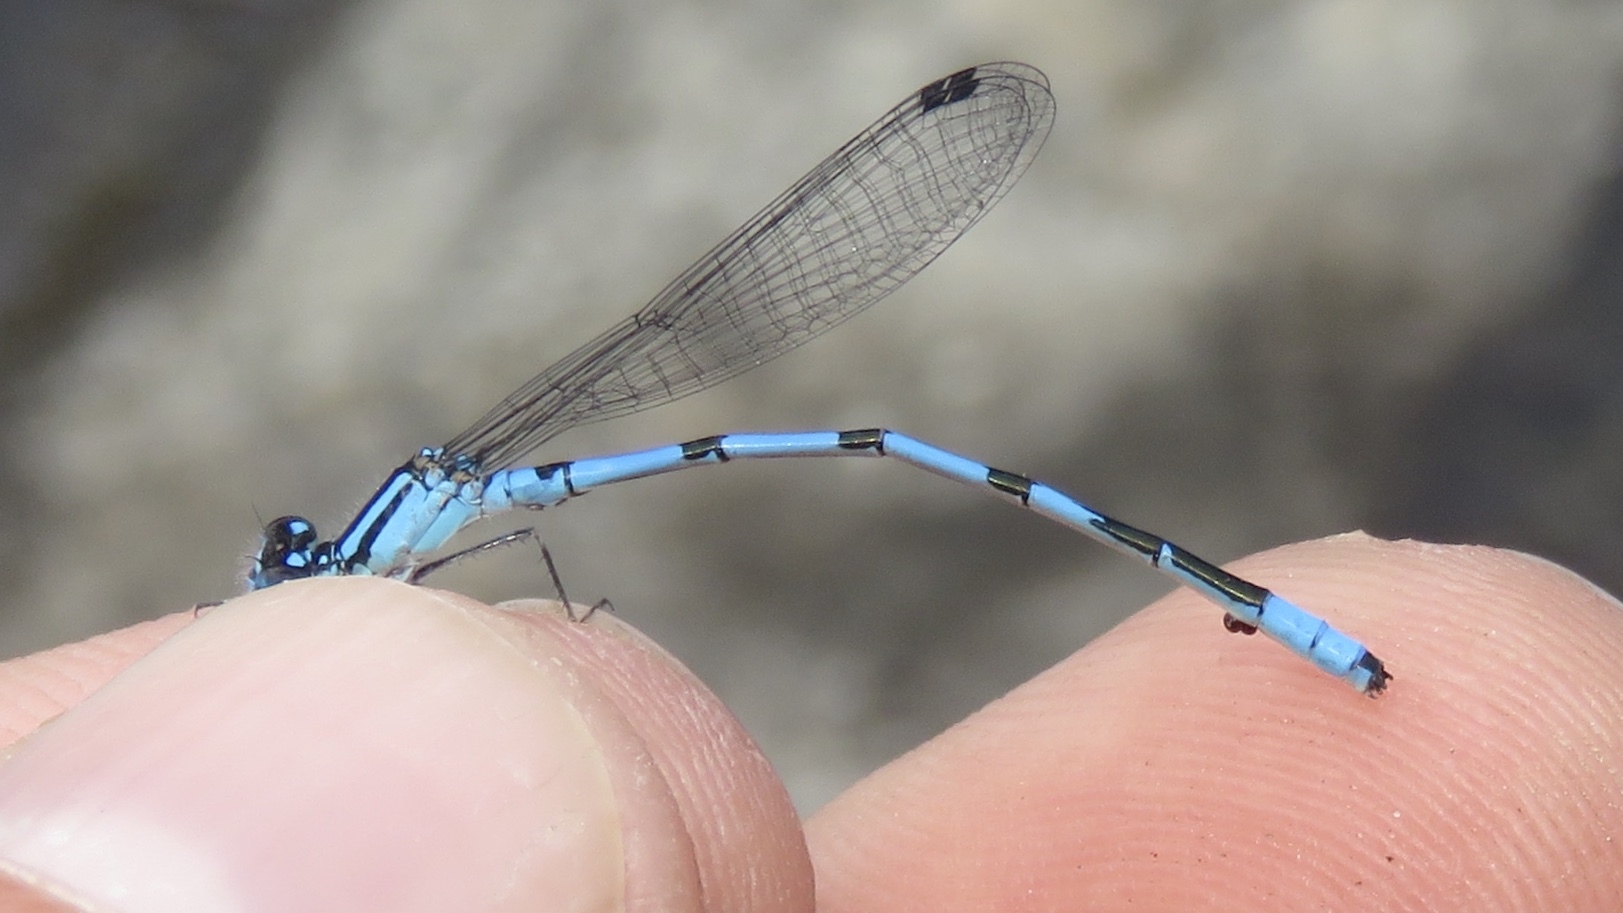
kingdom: Animalia
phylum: Arthropoda
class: Insecta
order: Odonata
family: Coenagrionidae
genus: Enallagma
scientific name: Enallagma ebrium
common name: Marsh bluet
